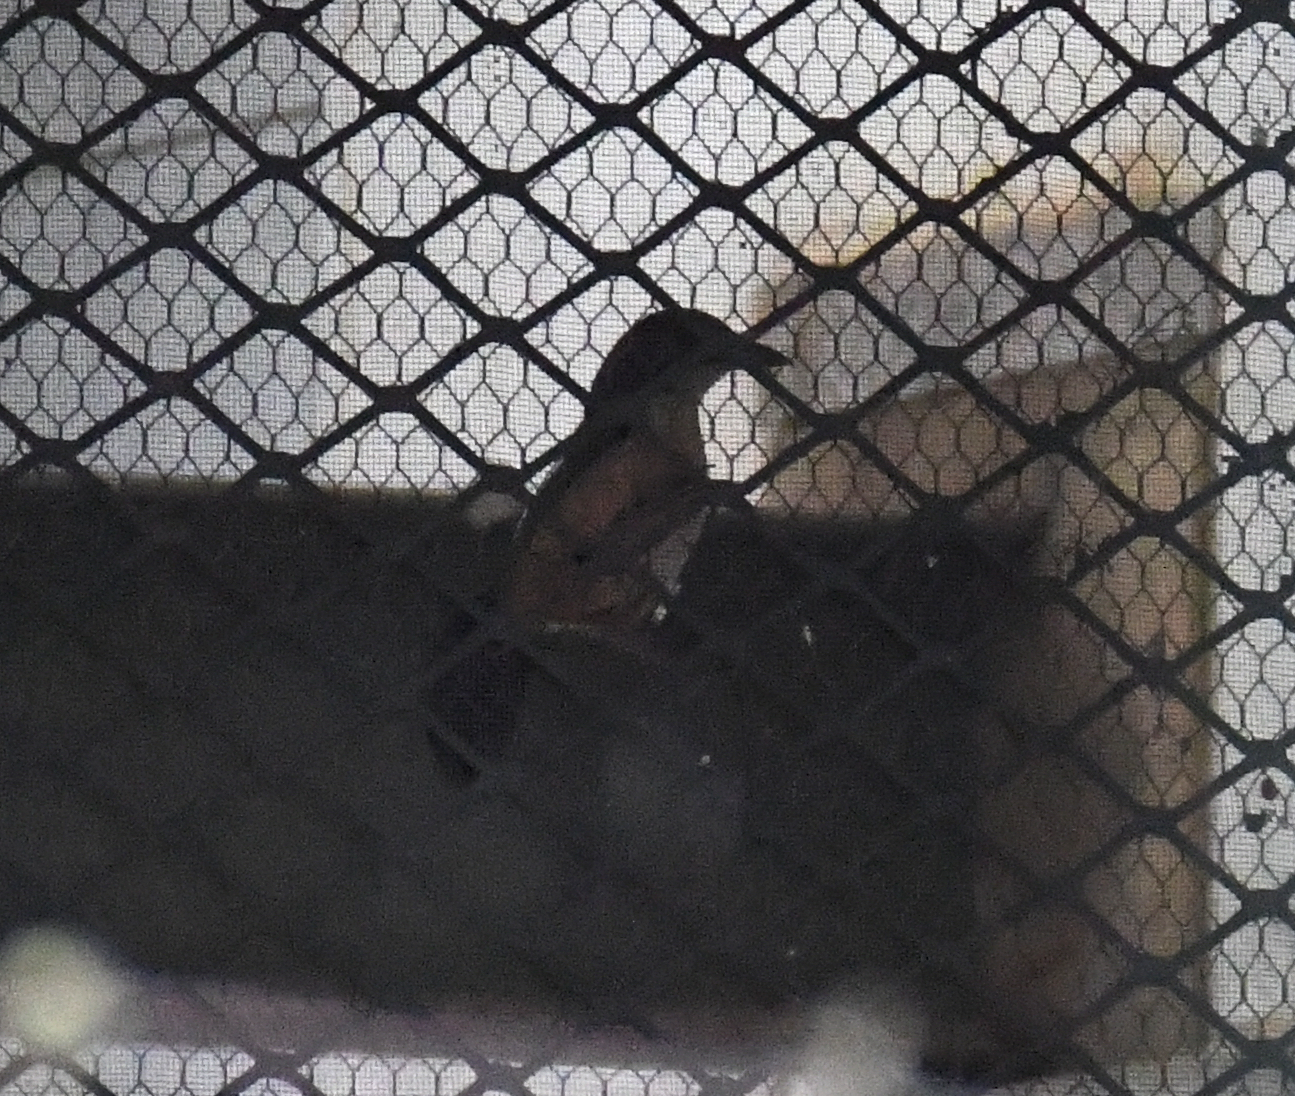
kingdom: Animalia
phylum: Chordata
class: Aves
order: Passeriformes
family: Malaconotidae
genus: Laniarius
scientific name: Laniarius ferrugineus
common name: Southern boubou
